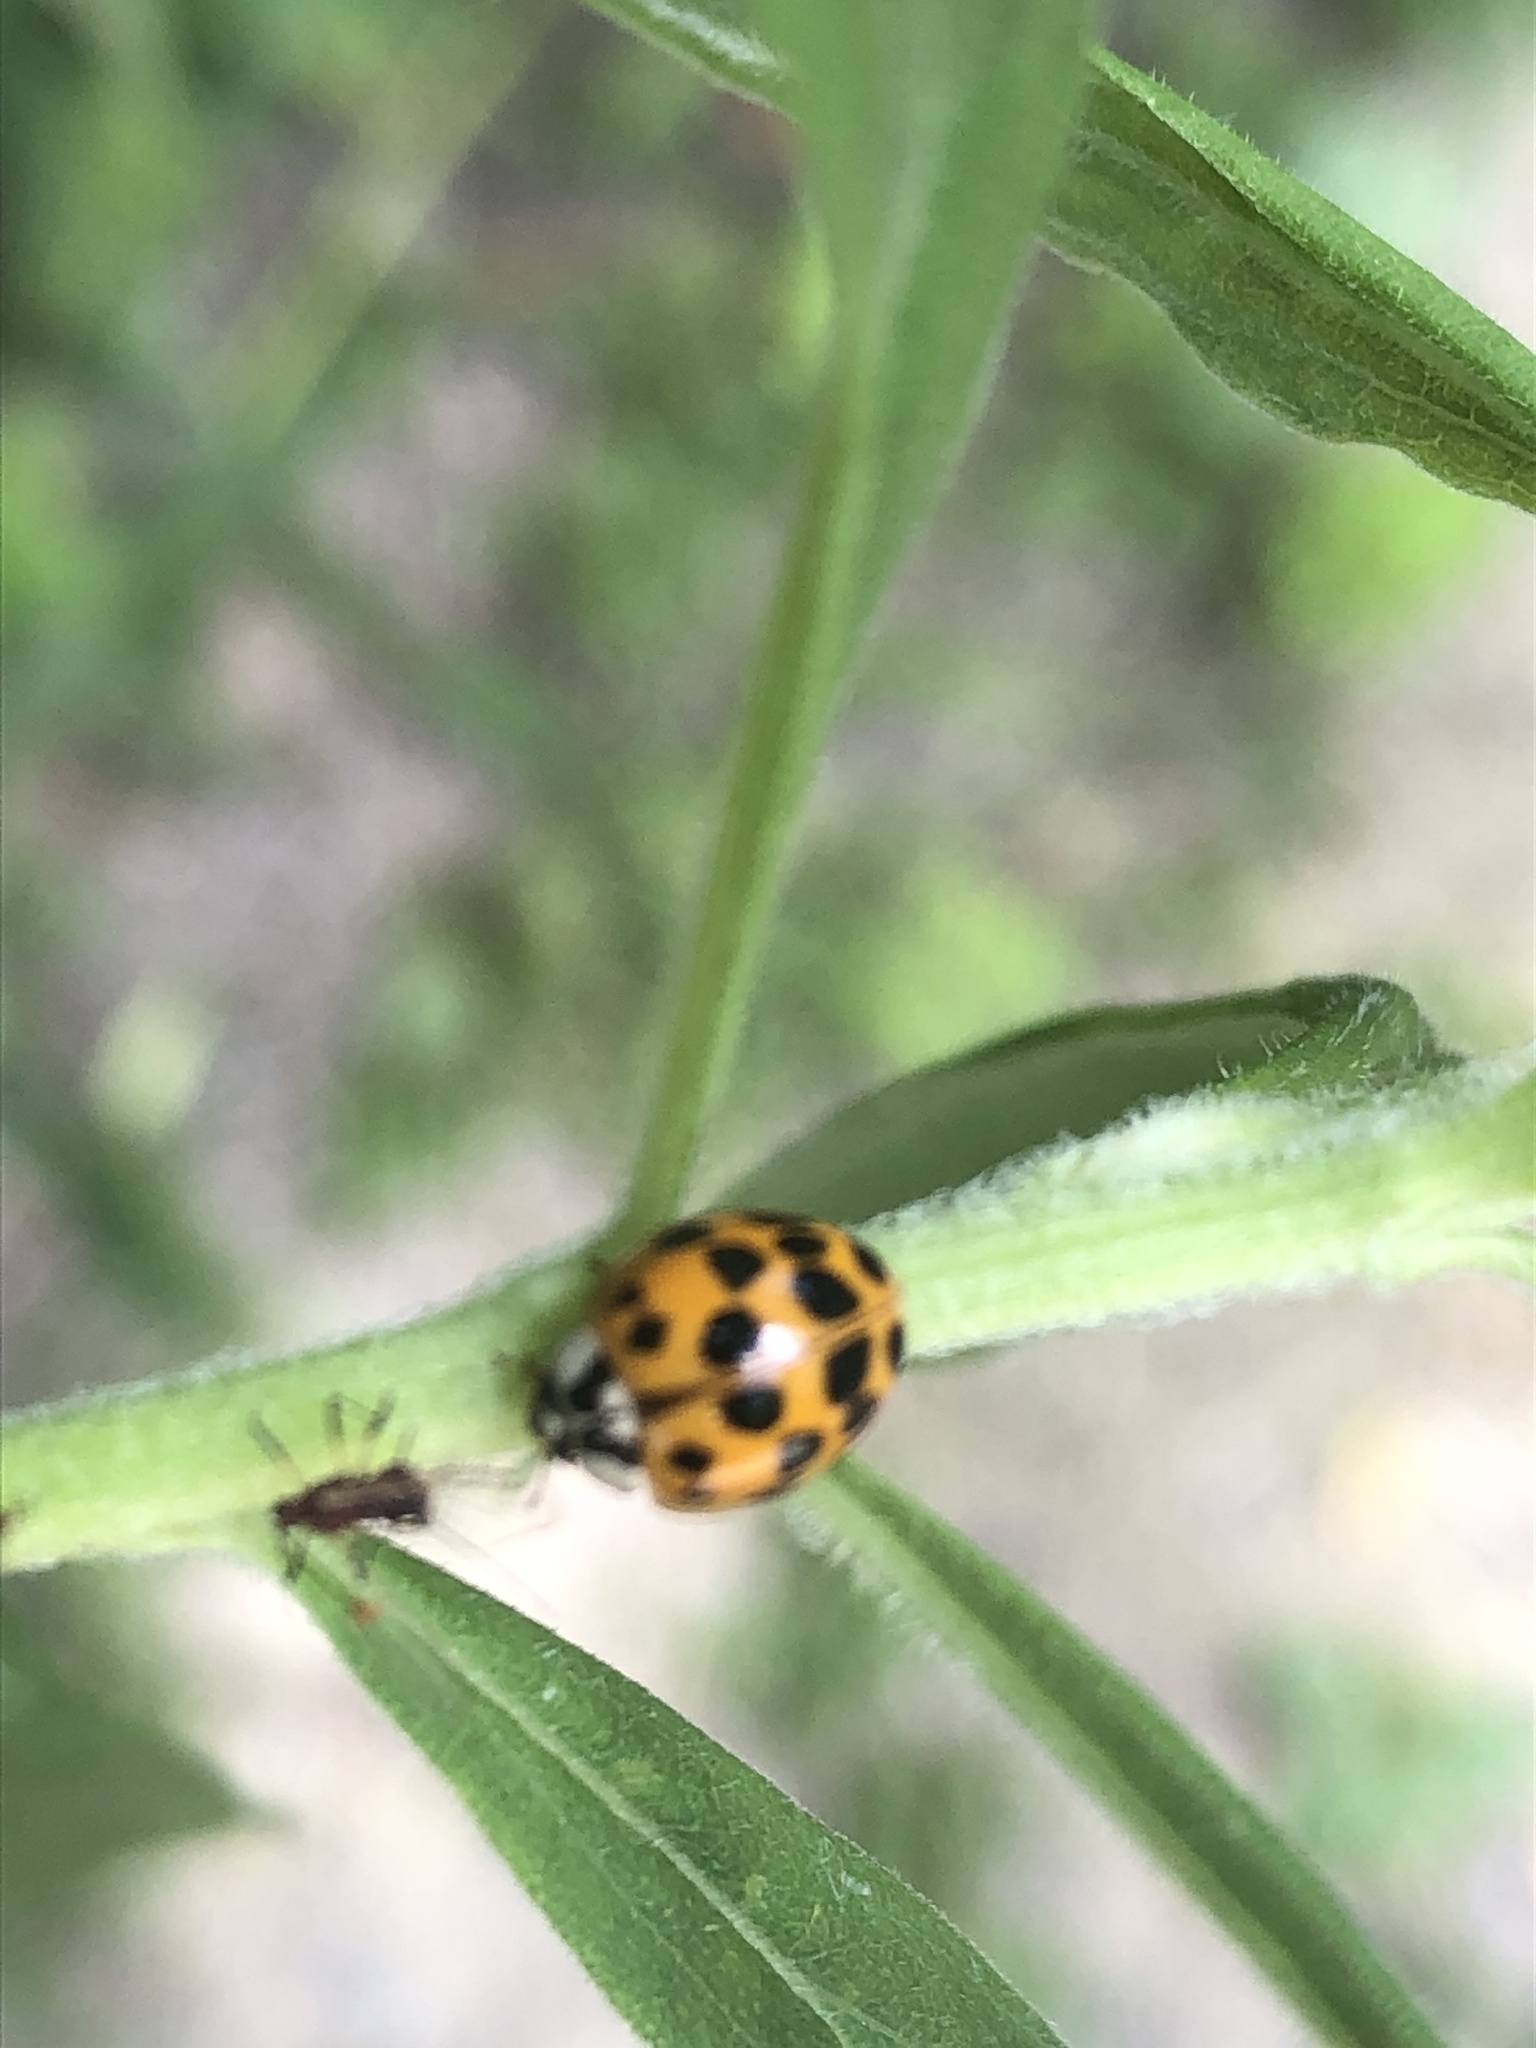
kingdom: Animalia
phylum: Arthropoda
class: Insecta
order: Coleoptera
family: Coccinellidae
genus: Harmonia
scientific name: Harmonia axyridis
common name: Harlequin ladybird
